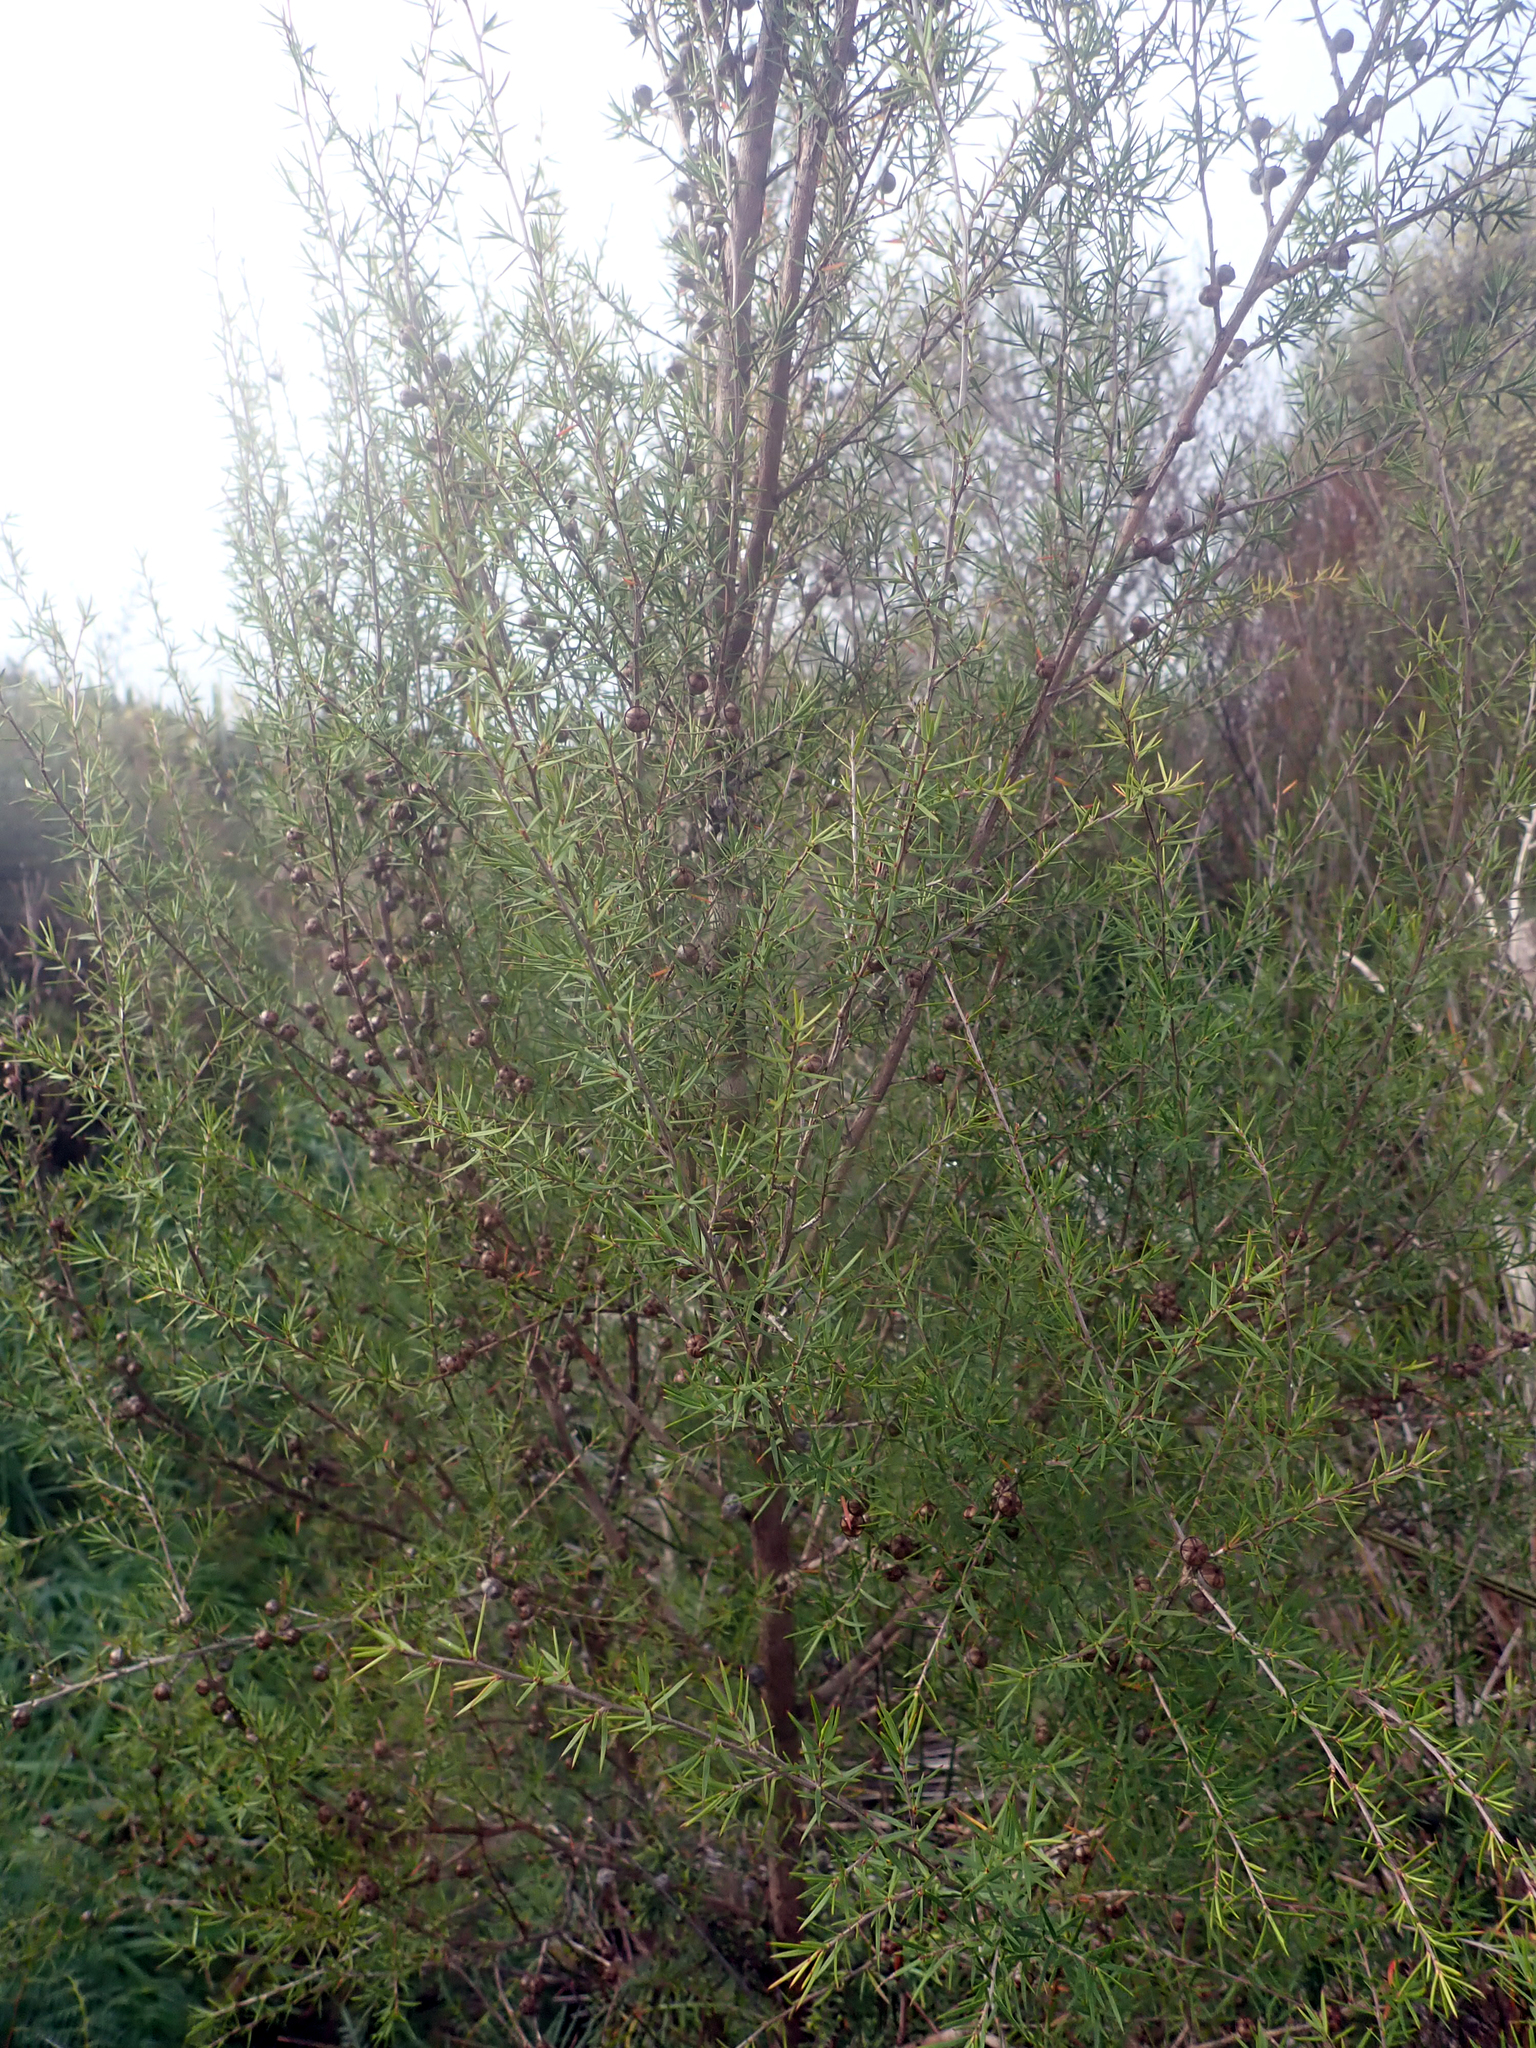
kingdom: Plantae
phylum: Tracheophyta
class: Magnoliopsida
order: Myrtales
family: Myrtaceae
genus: Leptospermum
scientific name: Leptospermum repo
